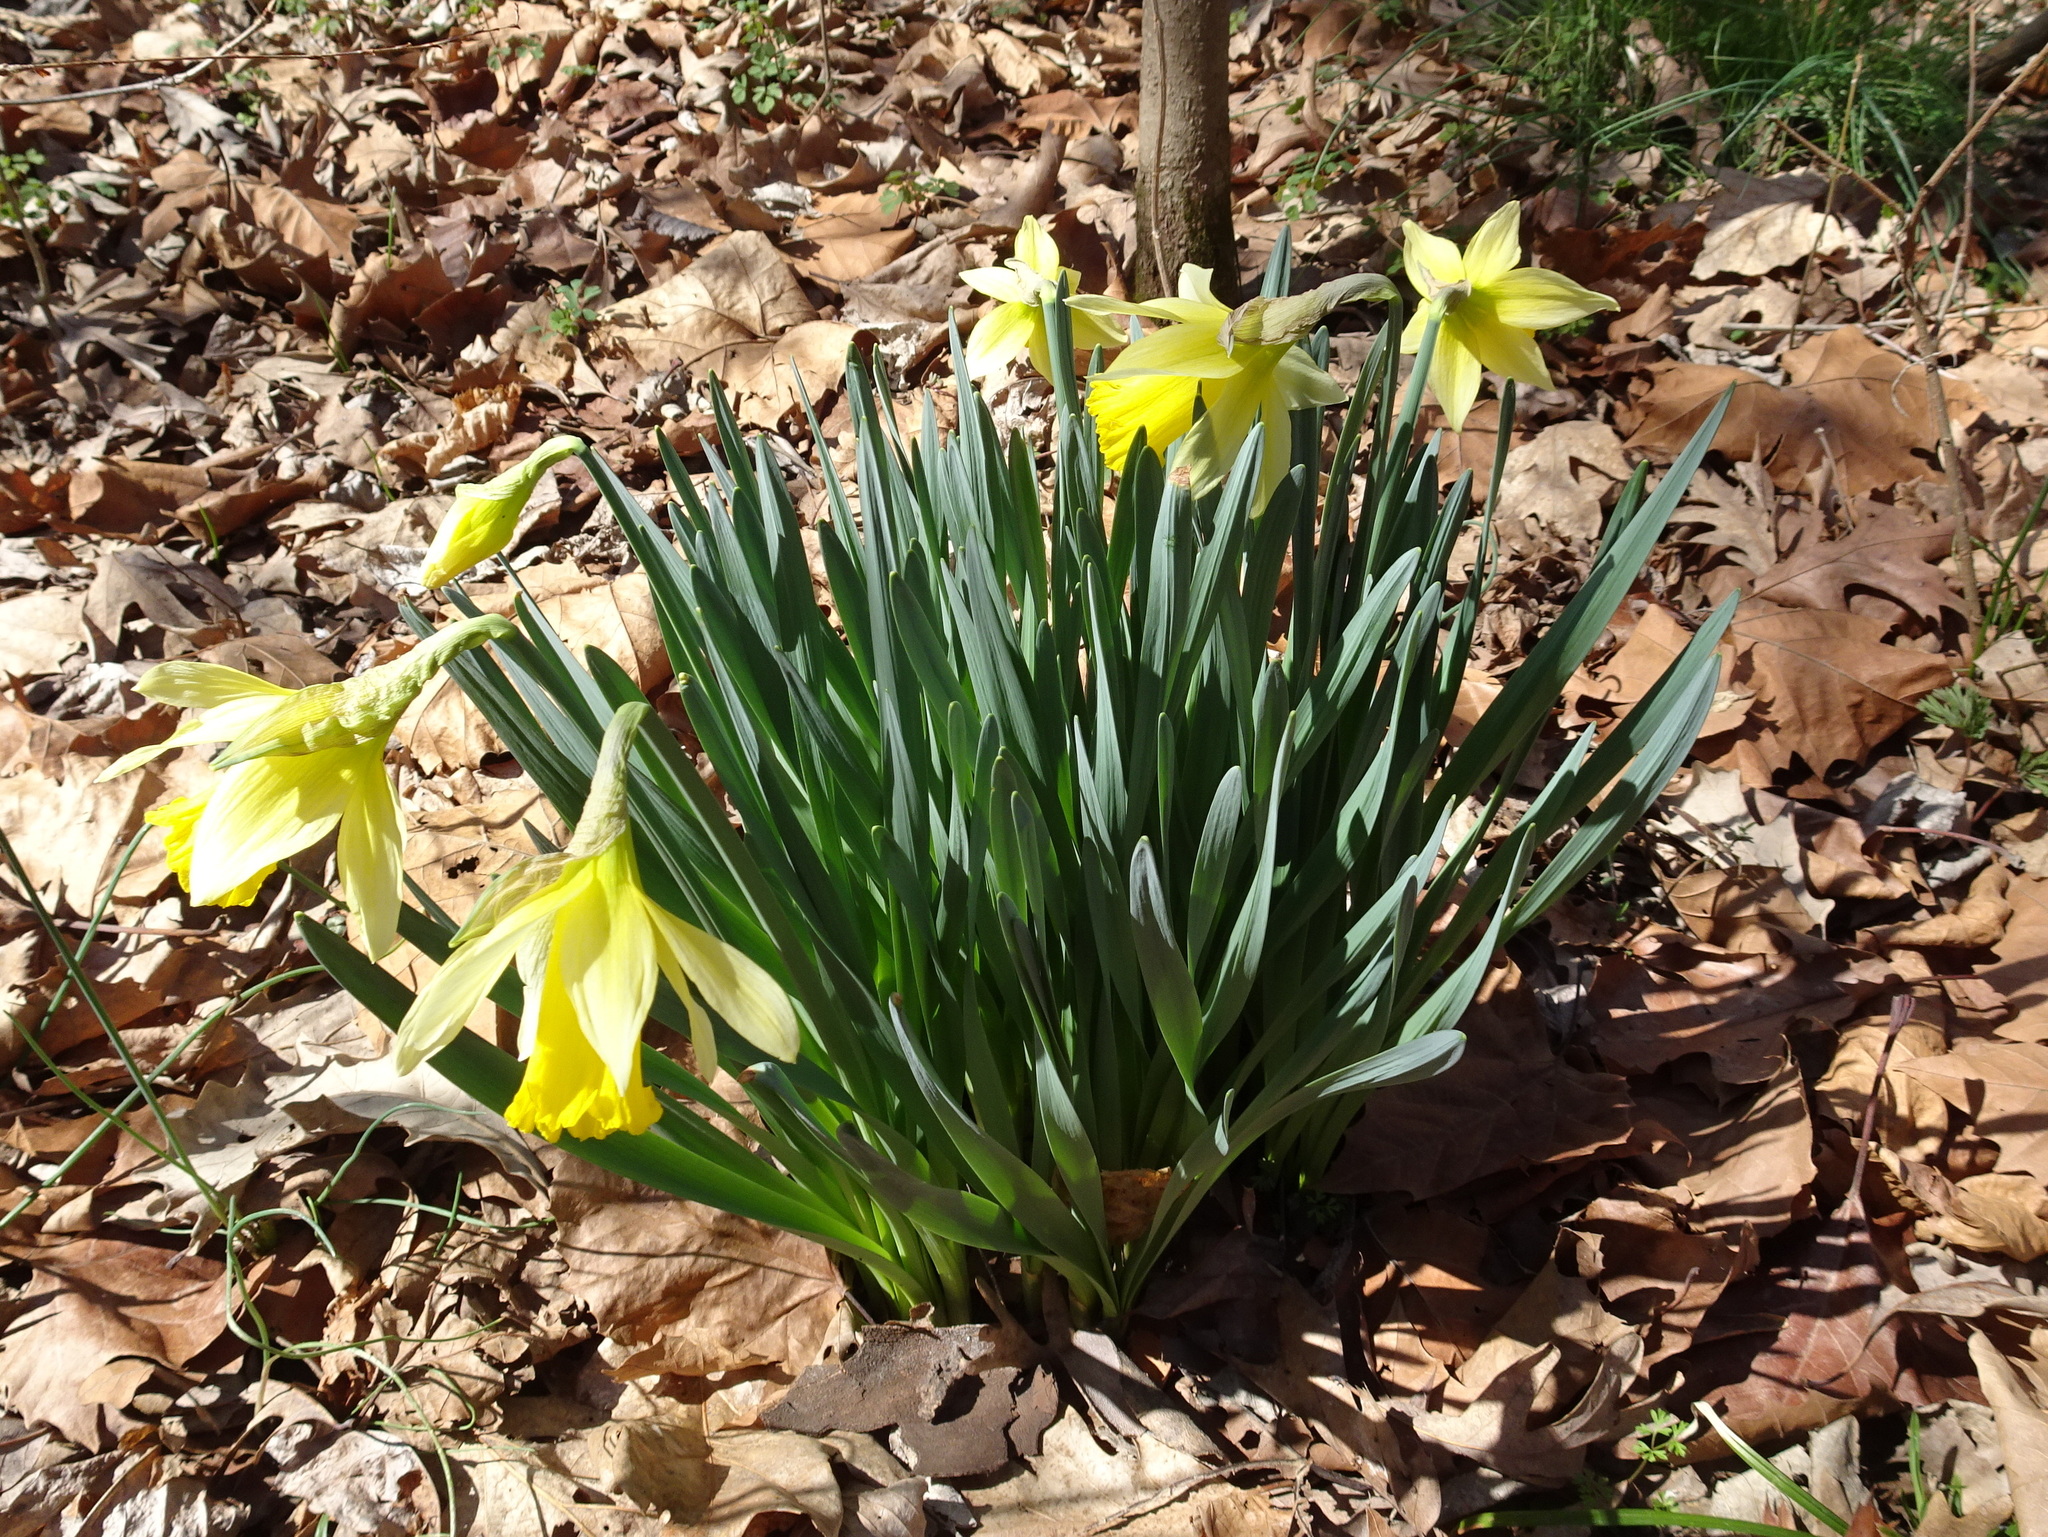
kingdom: Plantae
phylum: Tracheophyta
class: Liliopsida
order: Asparagales
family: Amaryllidaceae
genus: Narcissus
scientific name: Narcissus pseudonarcissus
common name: Daffodil
